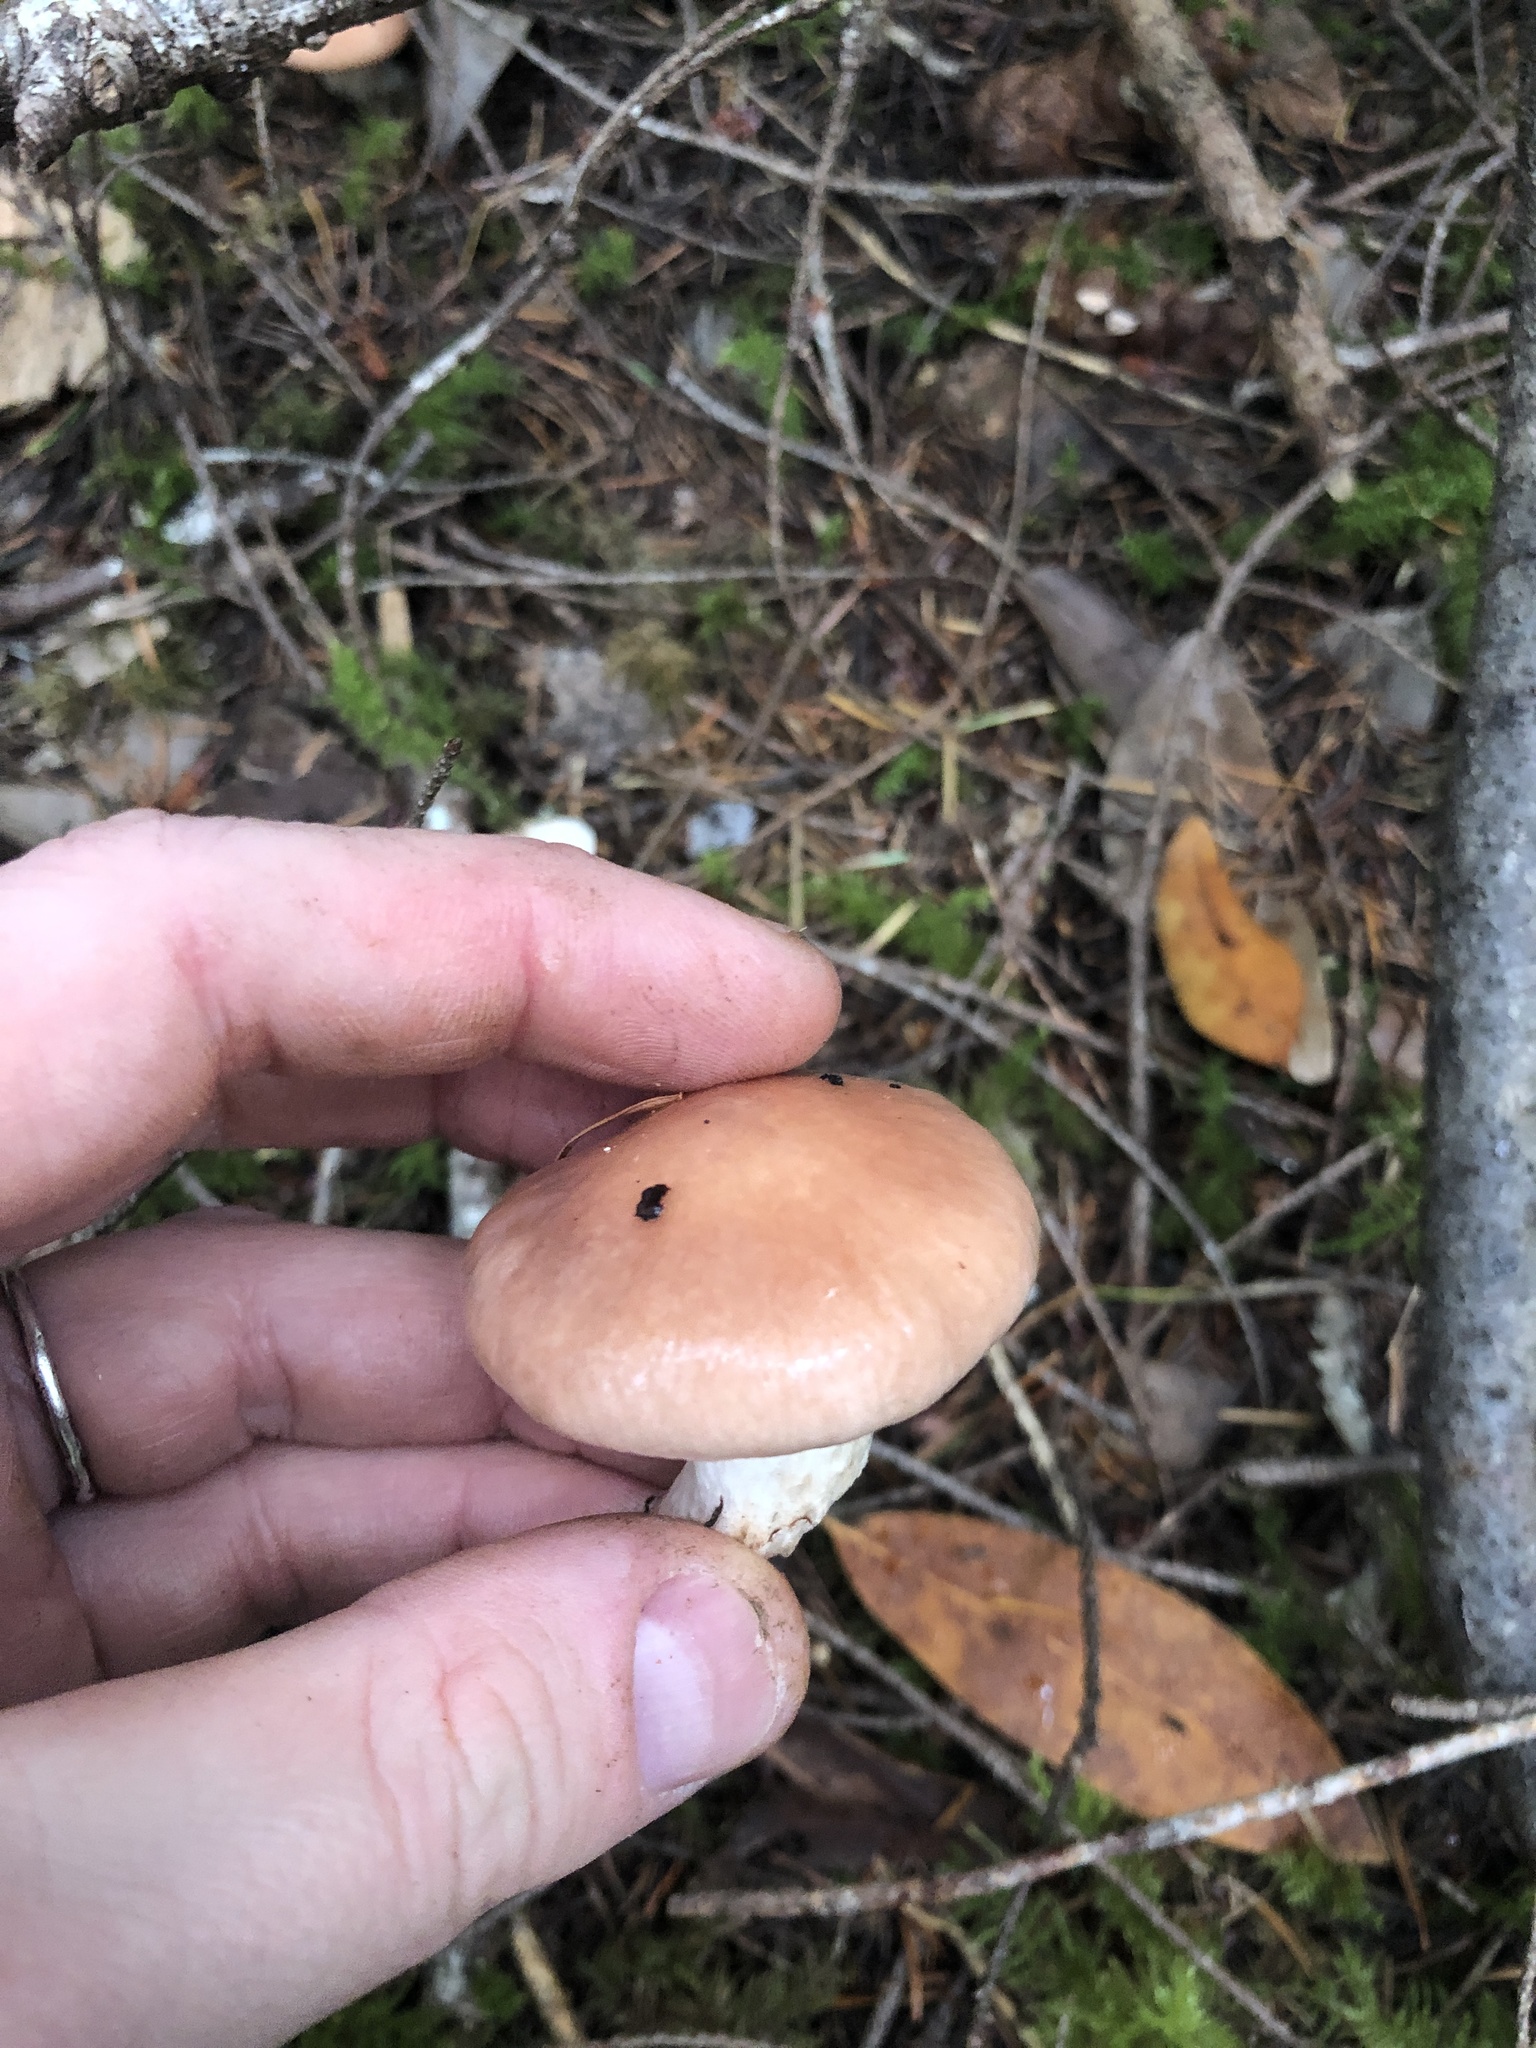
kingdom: Fungi
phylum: Basidiomycota
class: Agaricomycetes
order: Boletales
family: Gomphidiaceae
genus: Gomphidius
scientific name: Gomphidius subroseus
